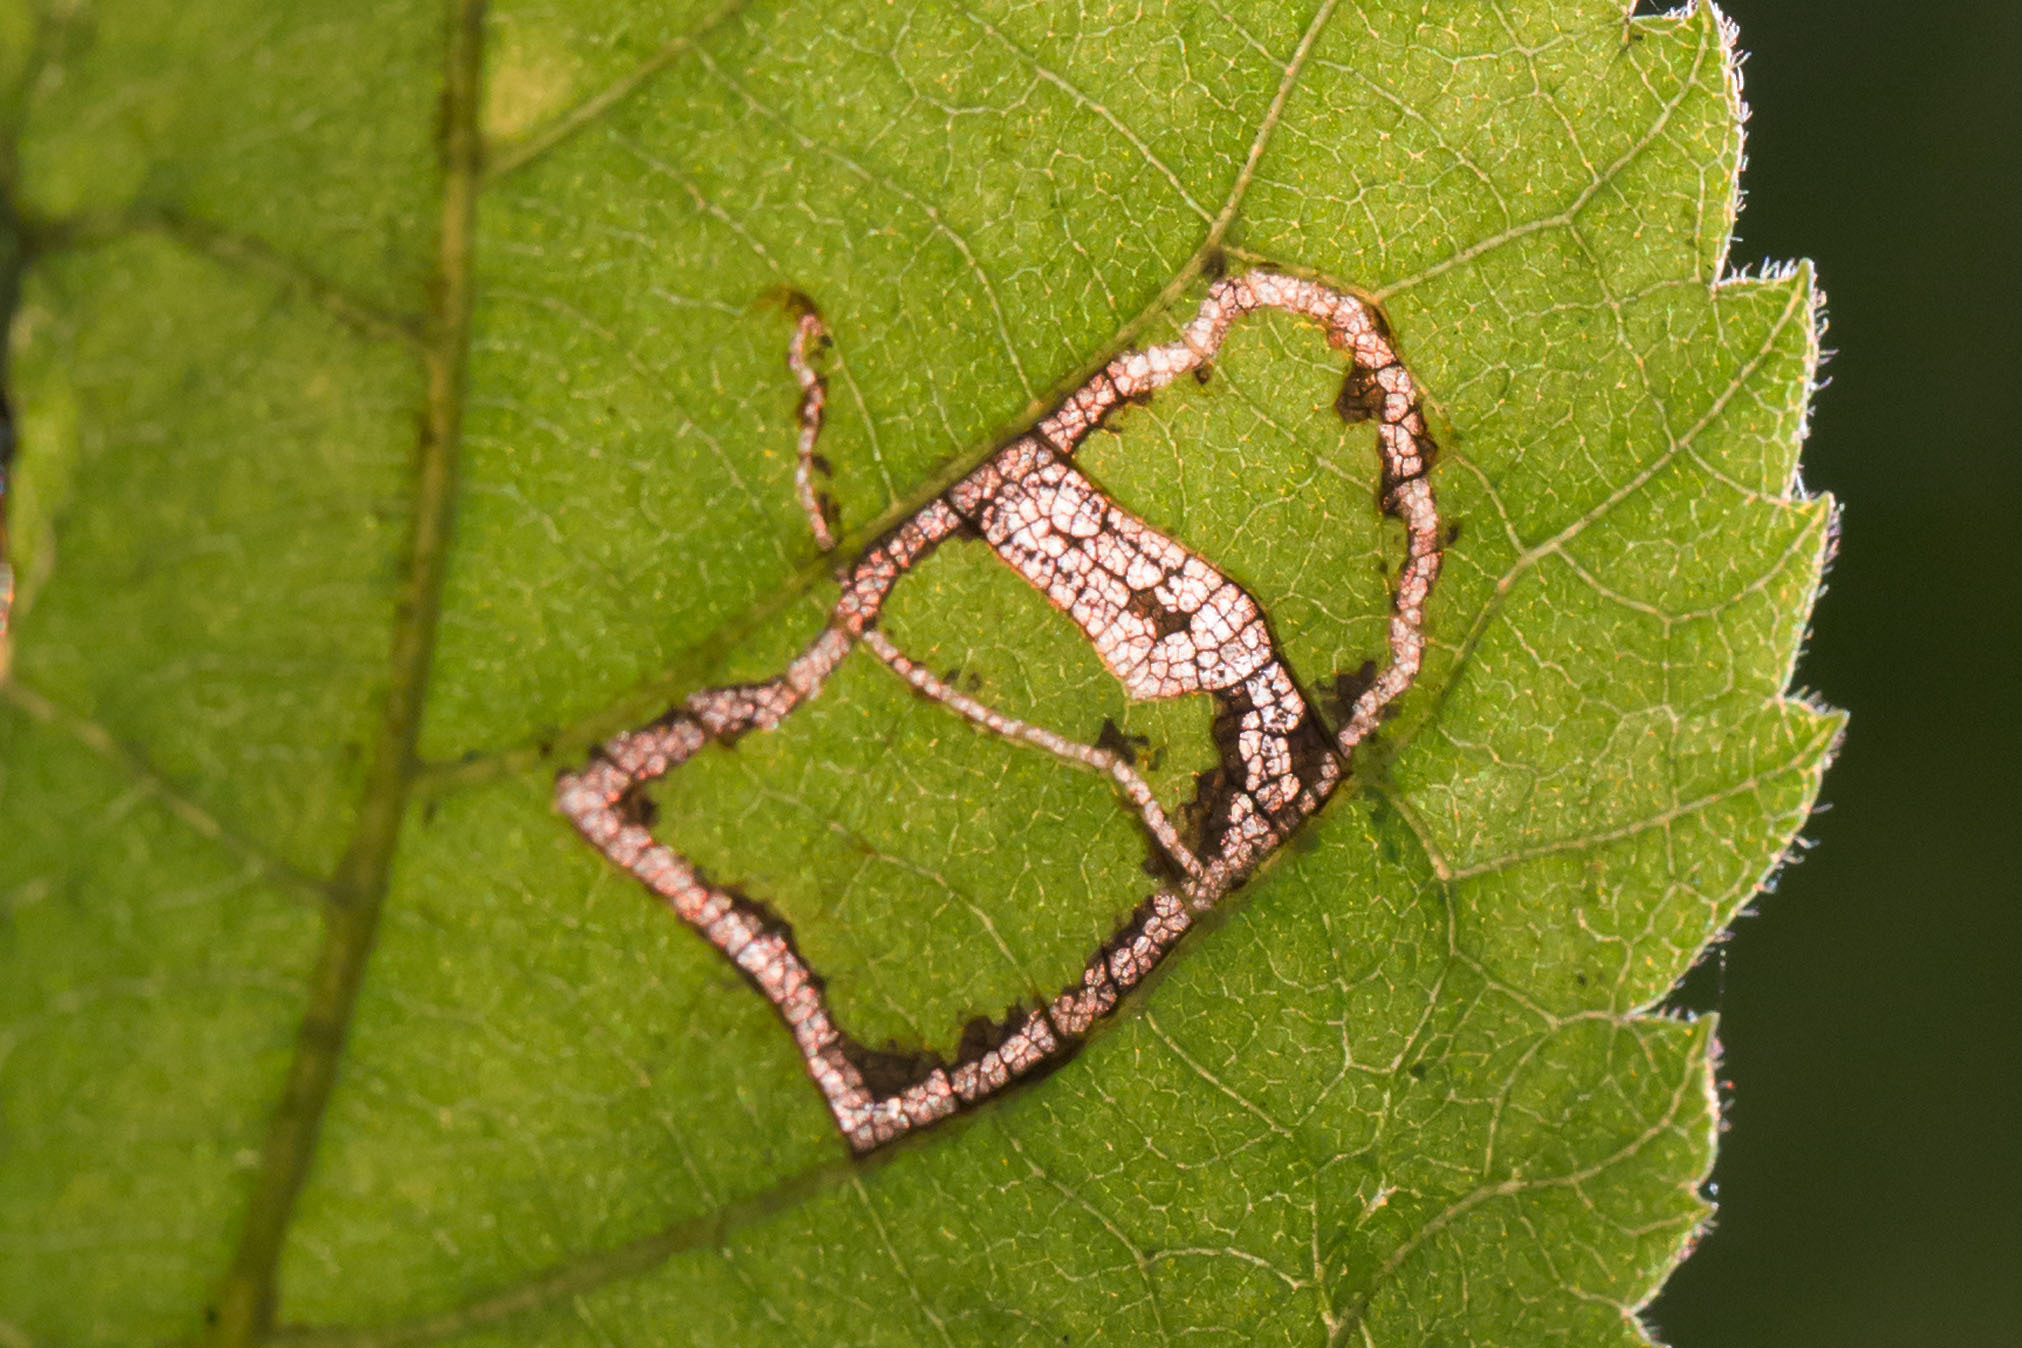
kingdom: Animalia
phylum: Arthropoda
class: Insecta
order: Lepidoptera
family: Nepticulidae
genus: Stigmella
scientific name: Stigmella caryaefoliella
